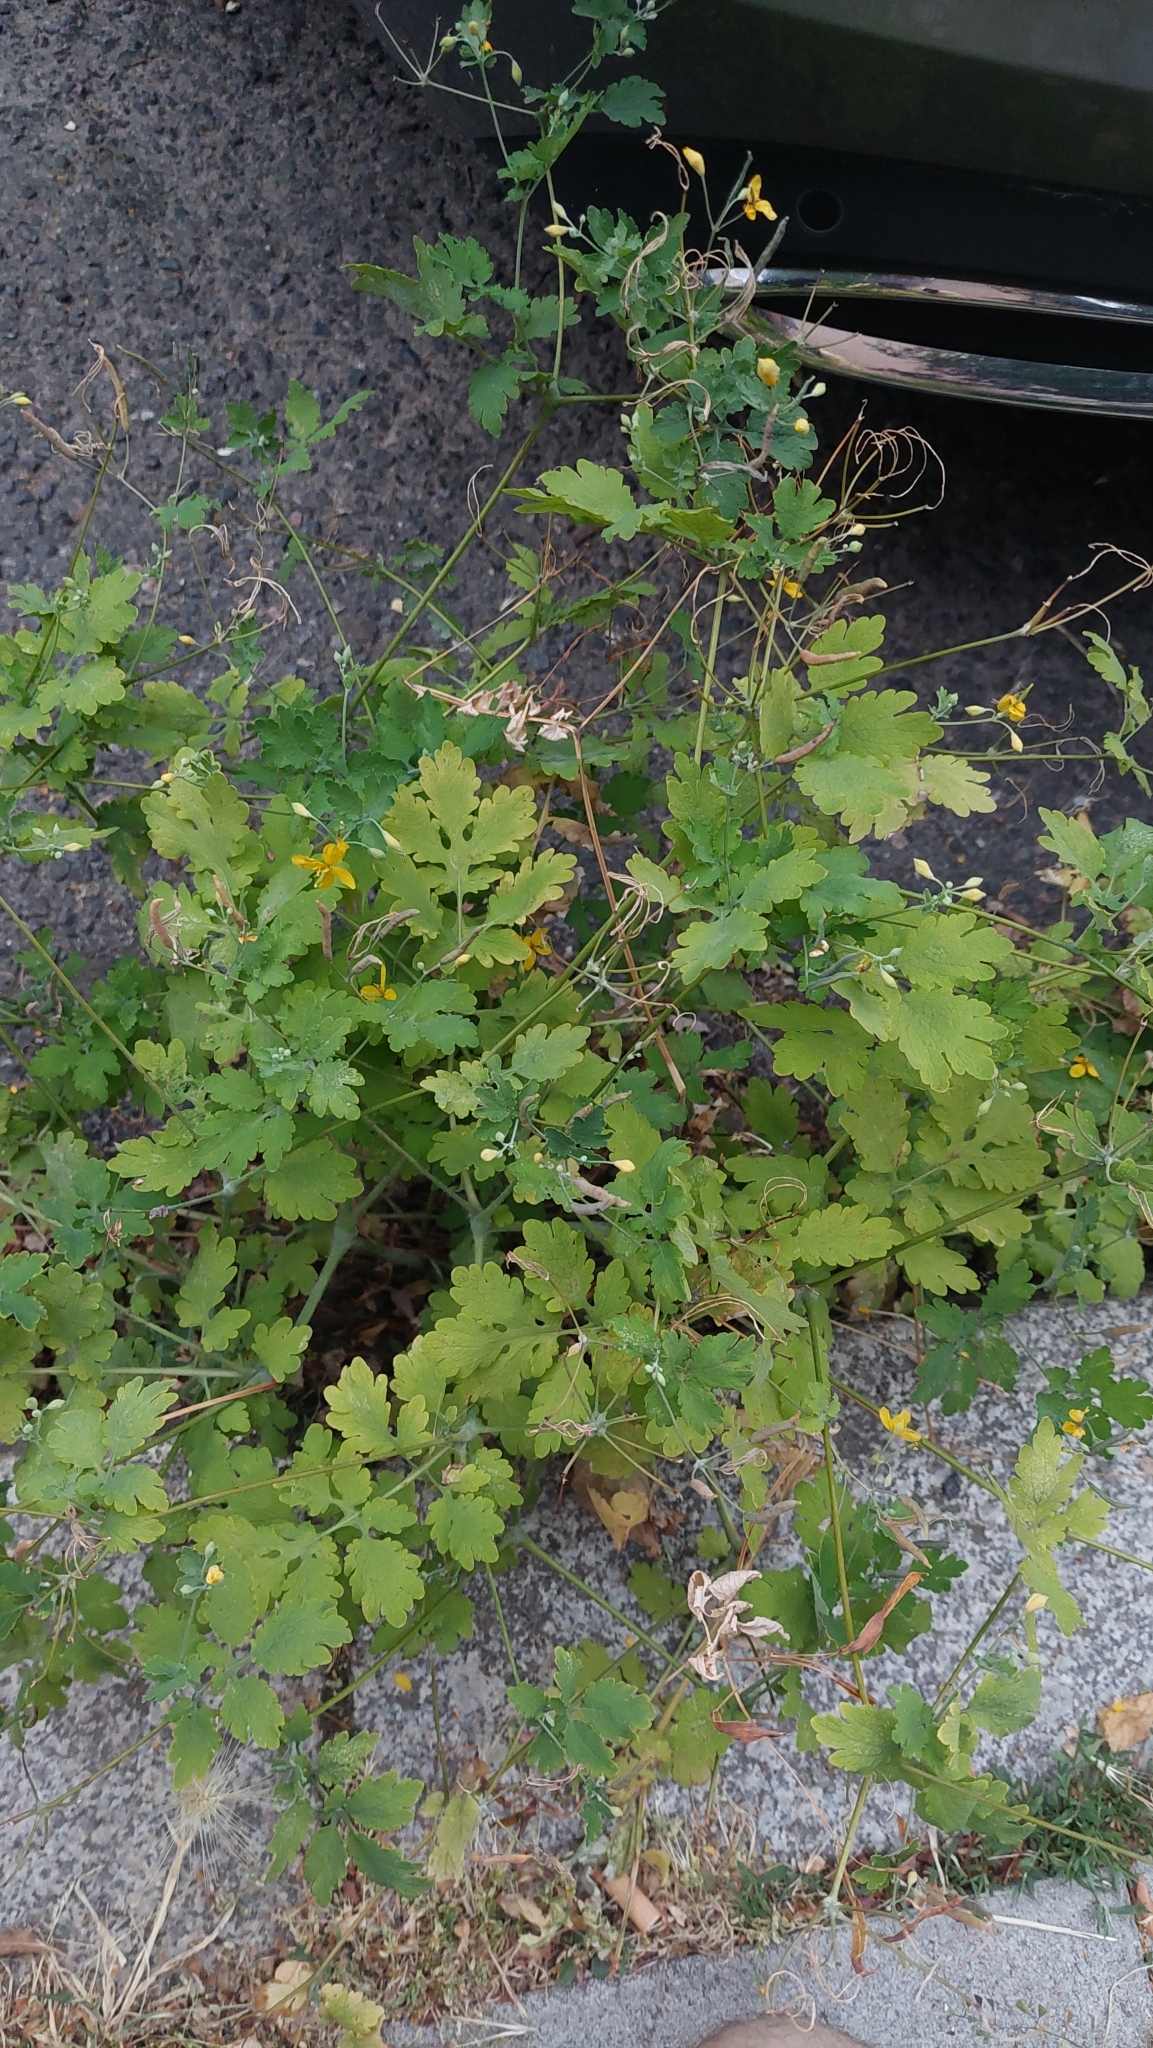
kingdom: Plantae
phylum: Tracheophyta
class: Magnoliopsida
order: Ranunculales
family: Papaveraceae
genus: Chelidonium
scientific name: Chelidonium majus
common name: Greater celandine
